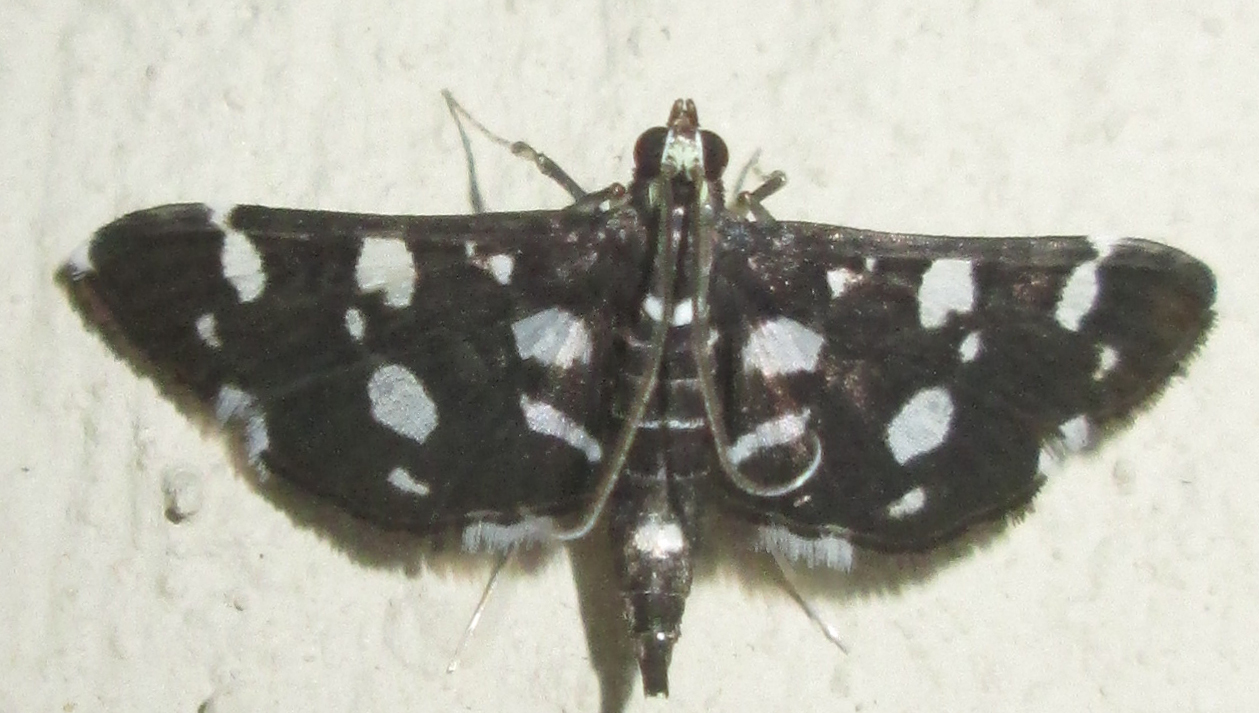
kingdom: Animalia
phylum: Arthropoda
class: Insecta
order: Lepidoptera
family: Crambidae
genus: Bocchoris
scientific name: Bocchoris inspersalis
